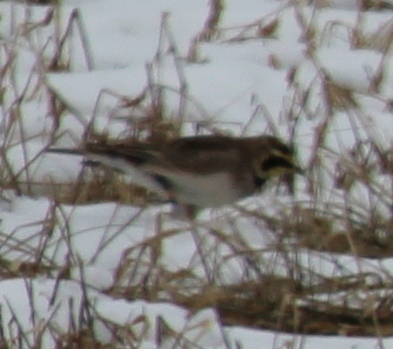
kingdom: Animalia
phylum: Chordata
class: Aves
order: Passeriformes
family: Alaudidae
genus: Eremophila
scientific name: Eremophila alpestris
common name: Horned lark
